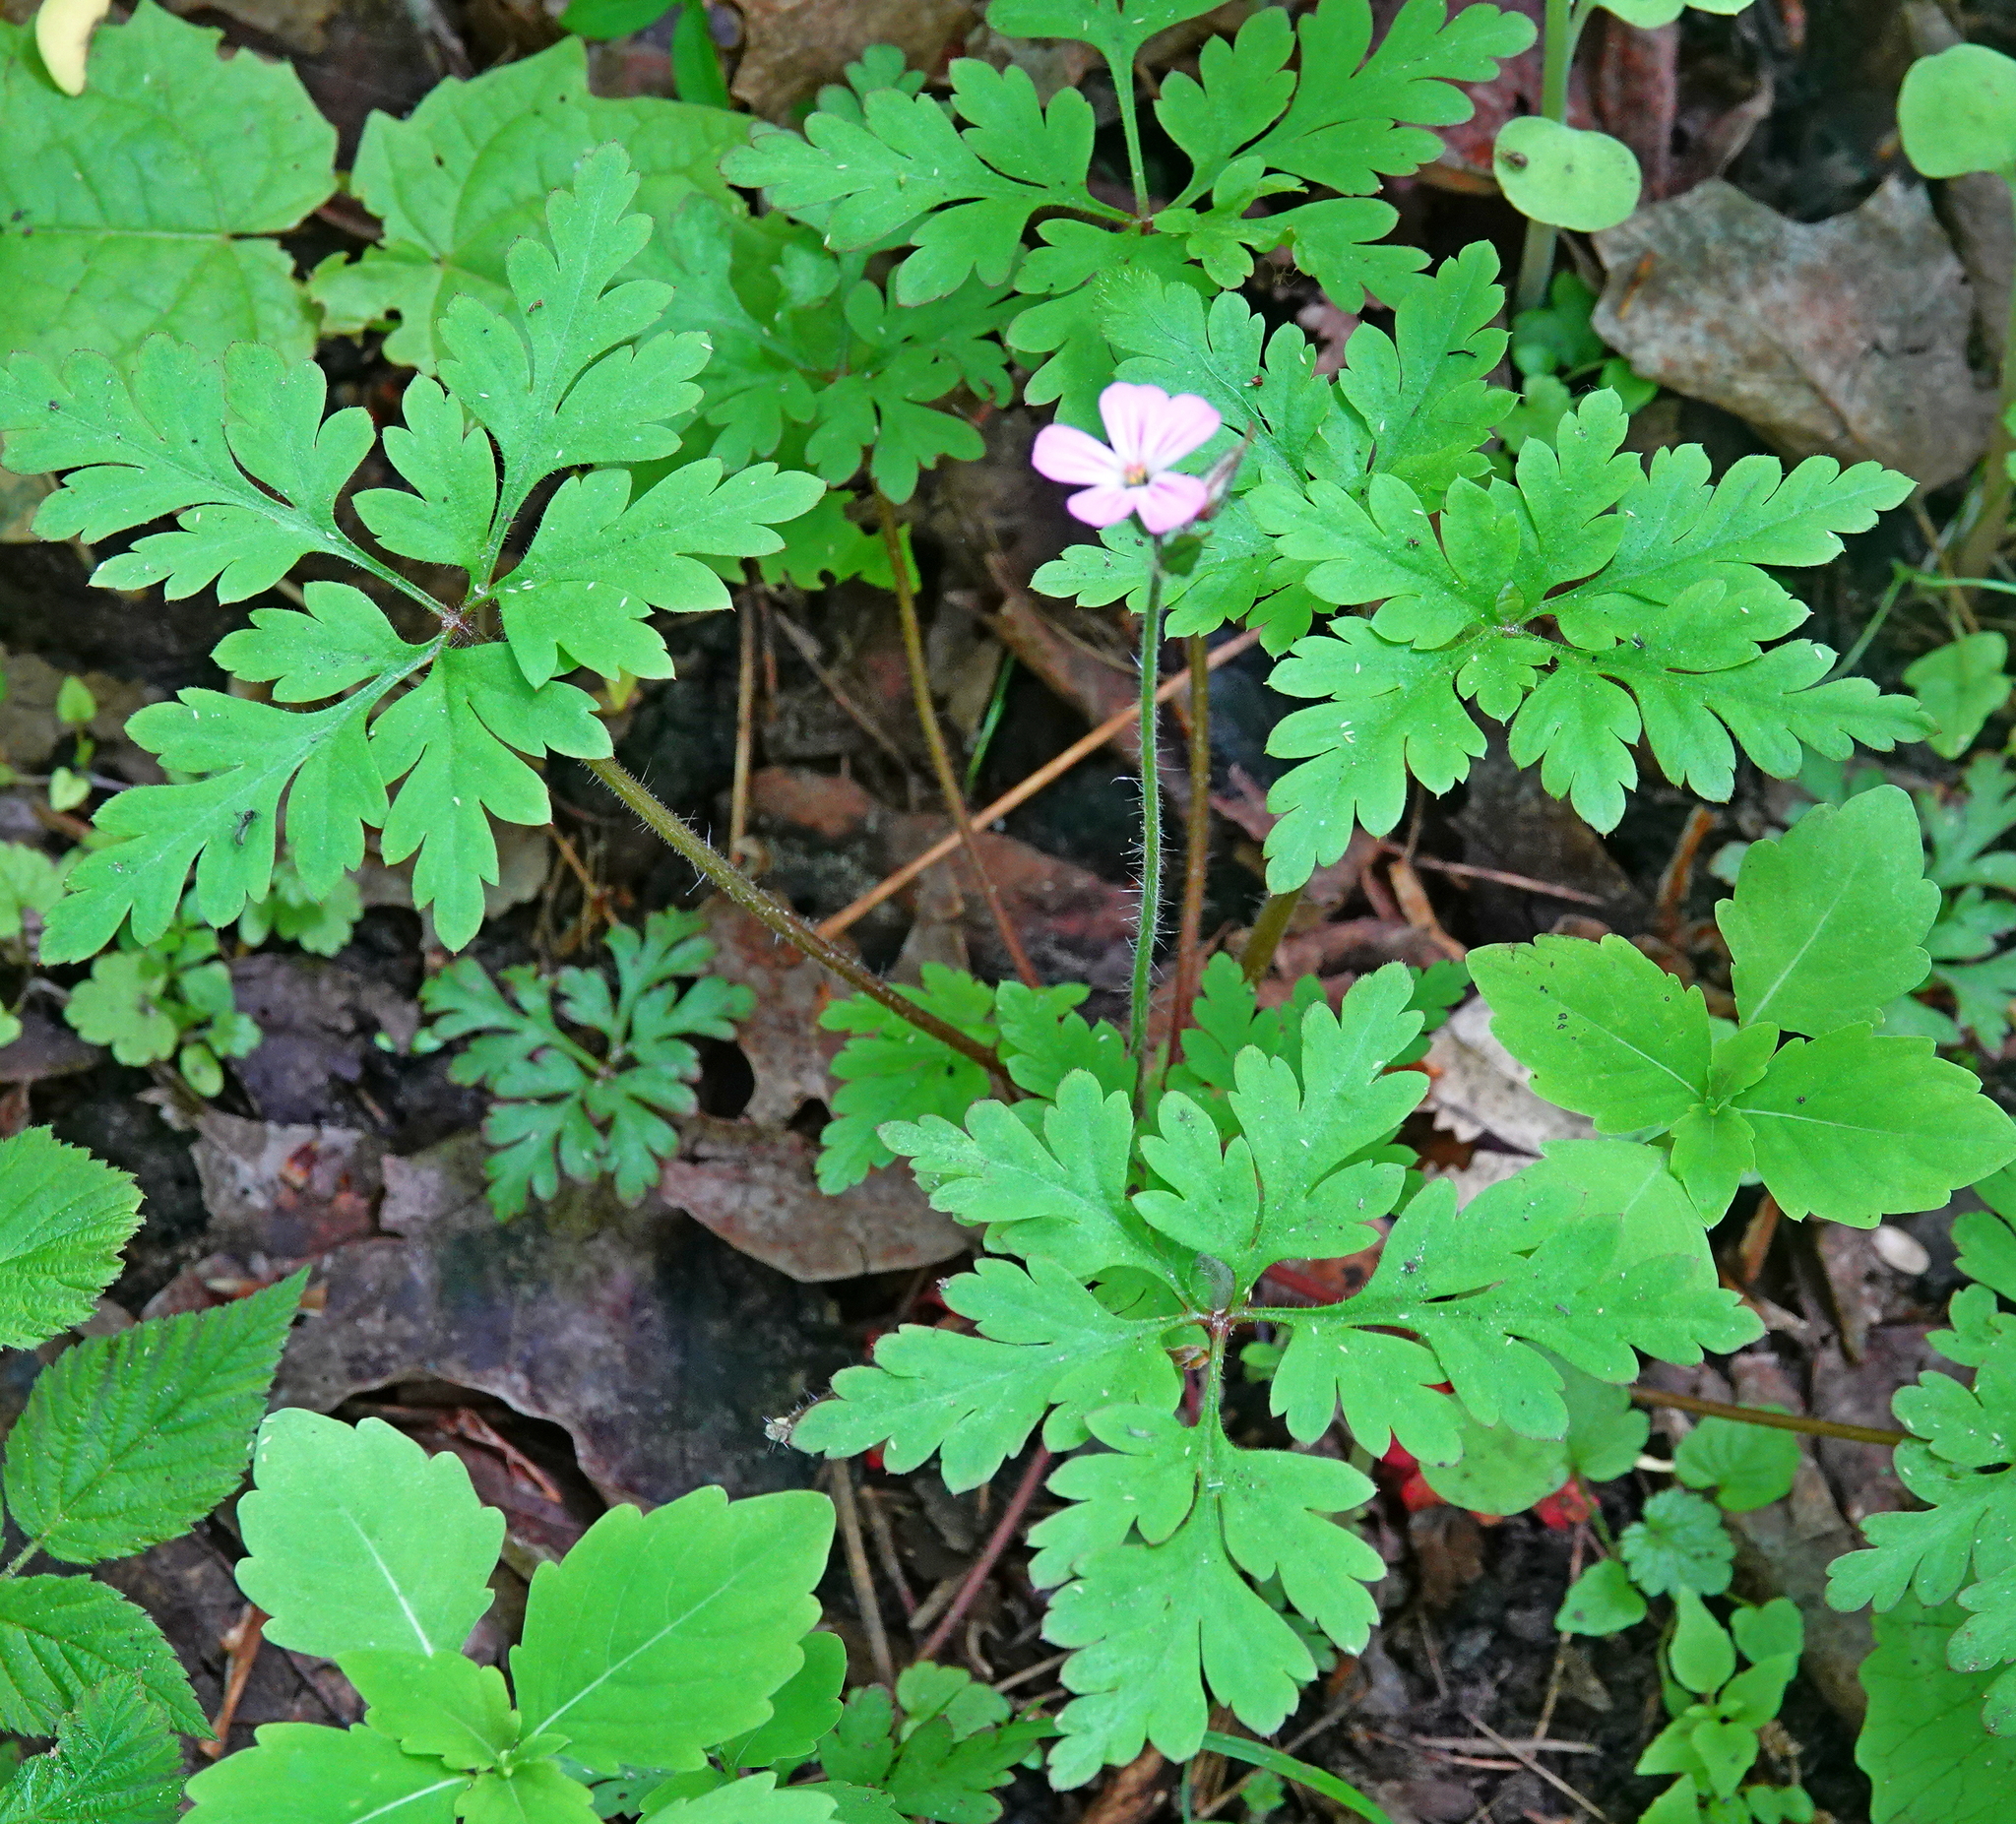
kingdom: Plantae
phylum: Tracheophyta
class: Magnoliopsida
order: Geraniales
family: Geraniaceae
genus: Geranium
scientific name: Geranium robertianum
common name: Herb-robert
